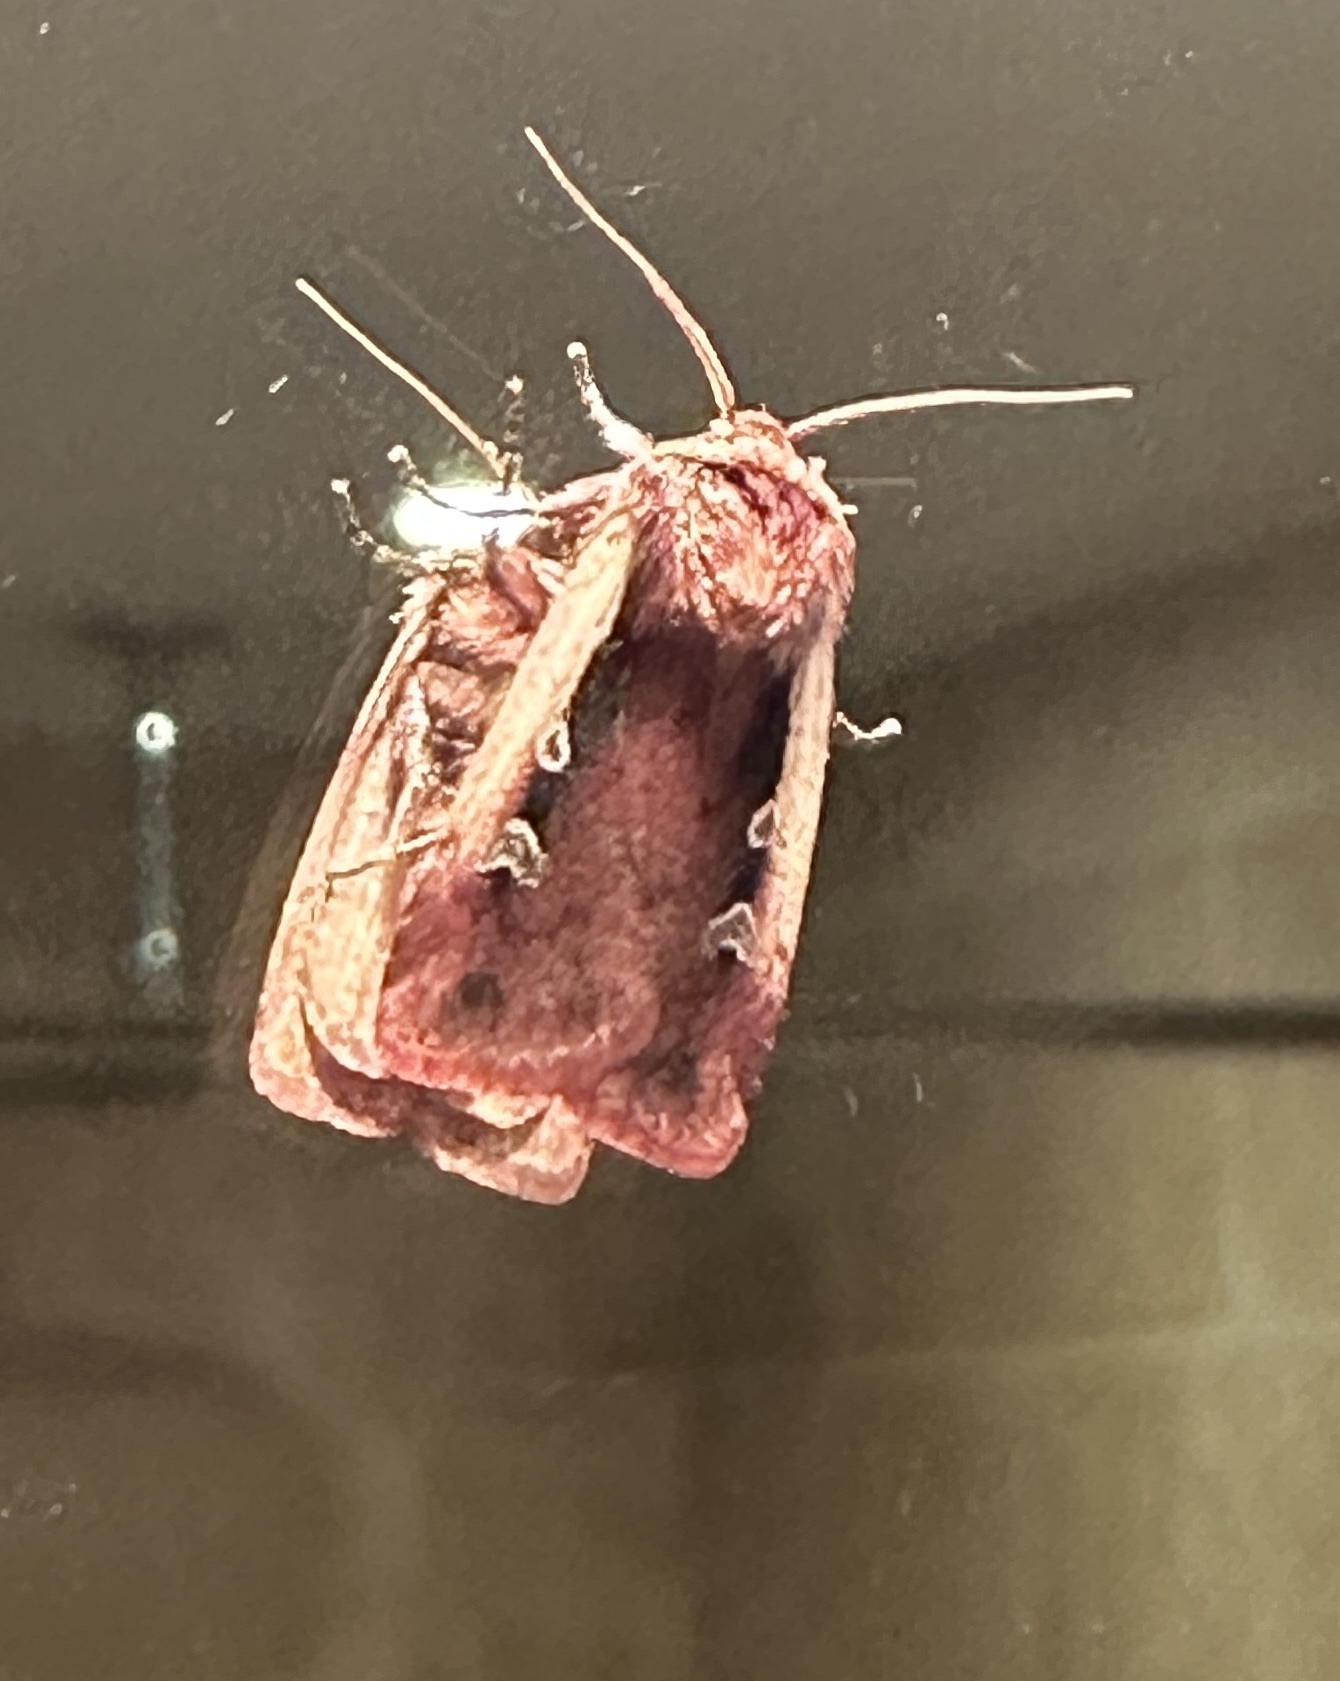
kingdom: Animalia
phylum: Arthropoda
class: Insecta
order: Lepidoptera
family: Noctuidae
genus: Ochropleura
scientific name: Ochropleura plecta
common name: Flame shoulder
